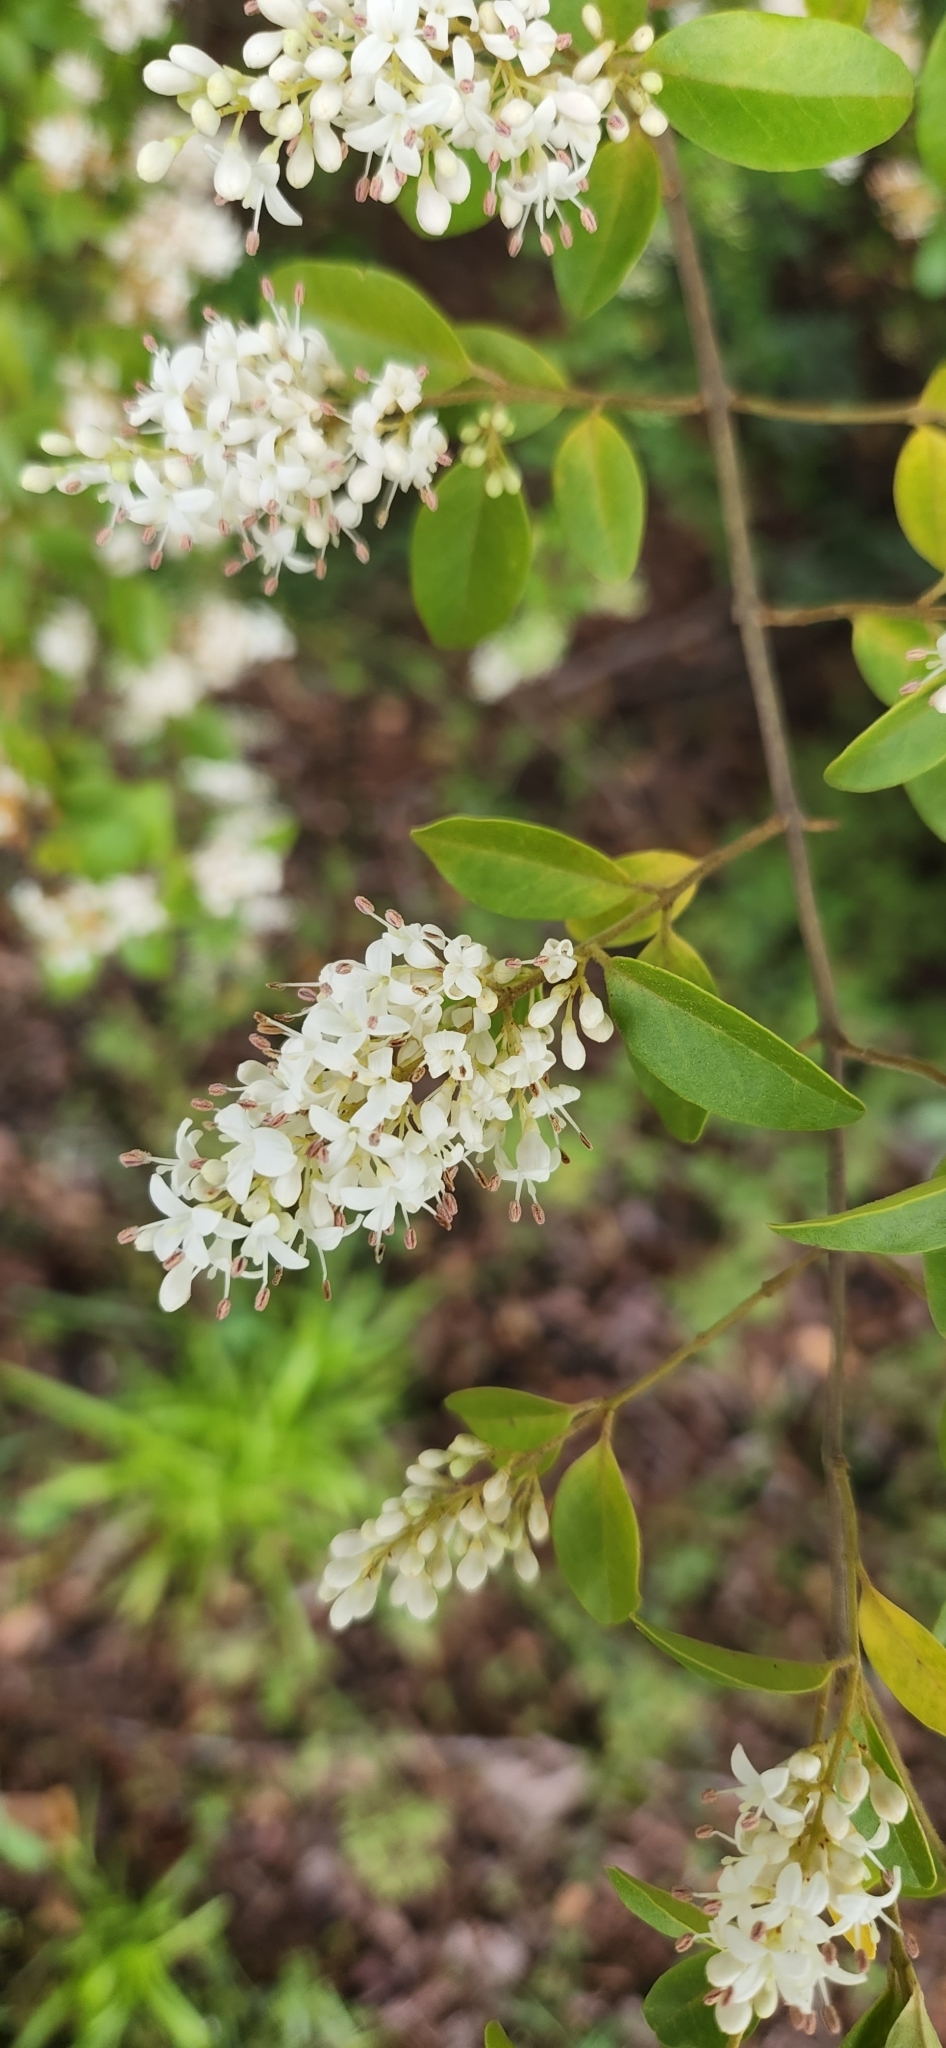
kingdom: Plantae
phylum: Tracheophyta
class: Magnoliopsida
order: Lamiales
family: Oleaceae
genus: Ligustrum
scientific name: Ligustrum sinense
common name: Chinese privet
